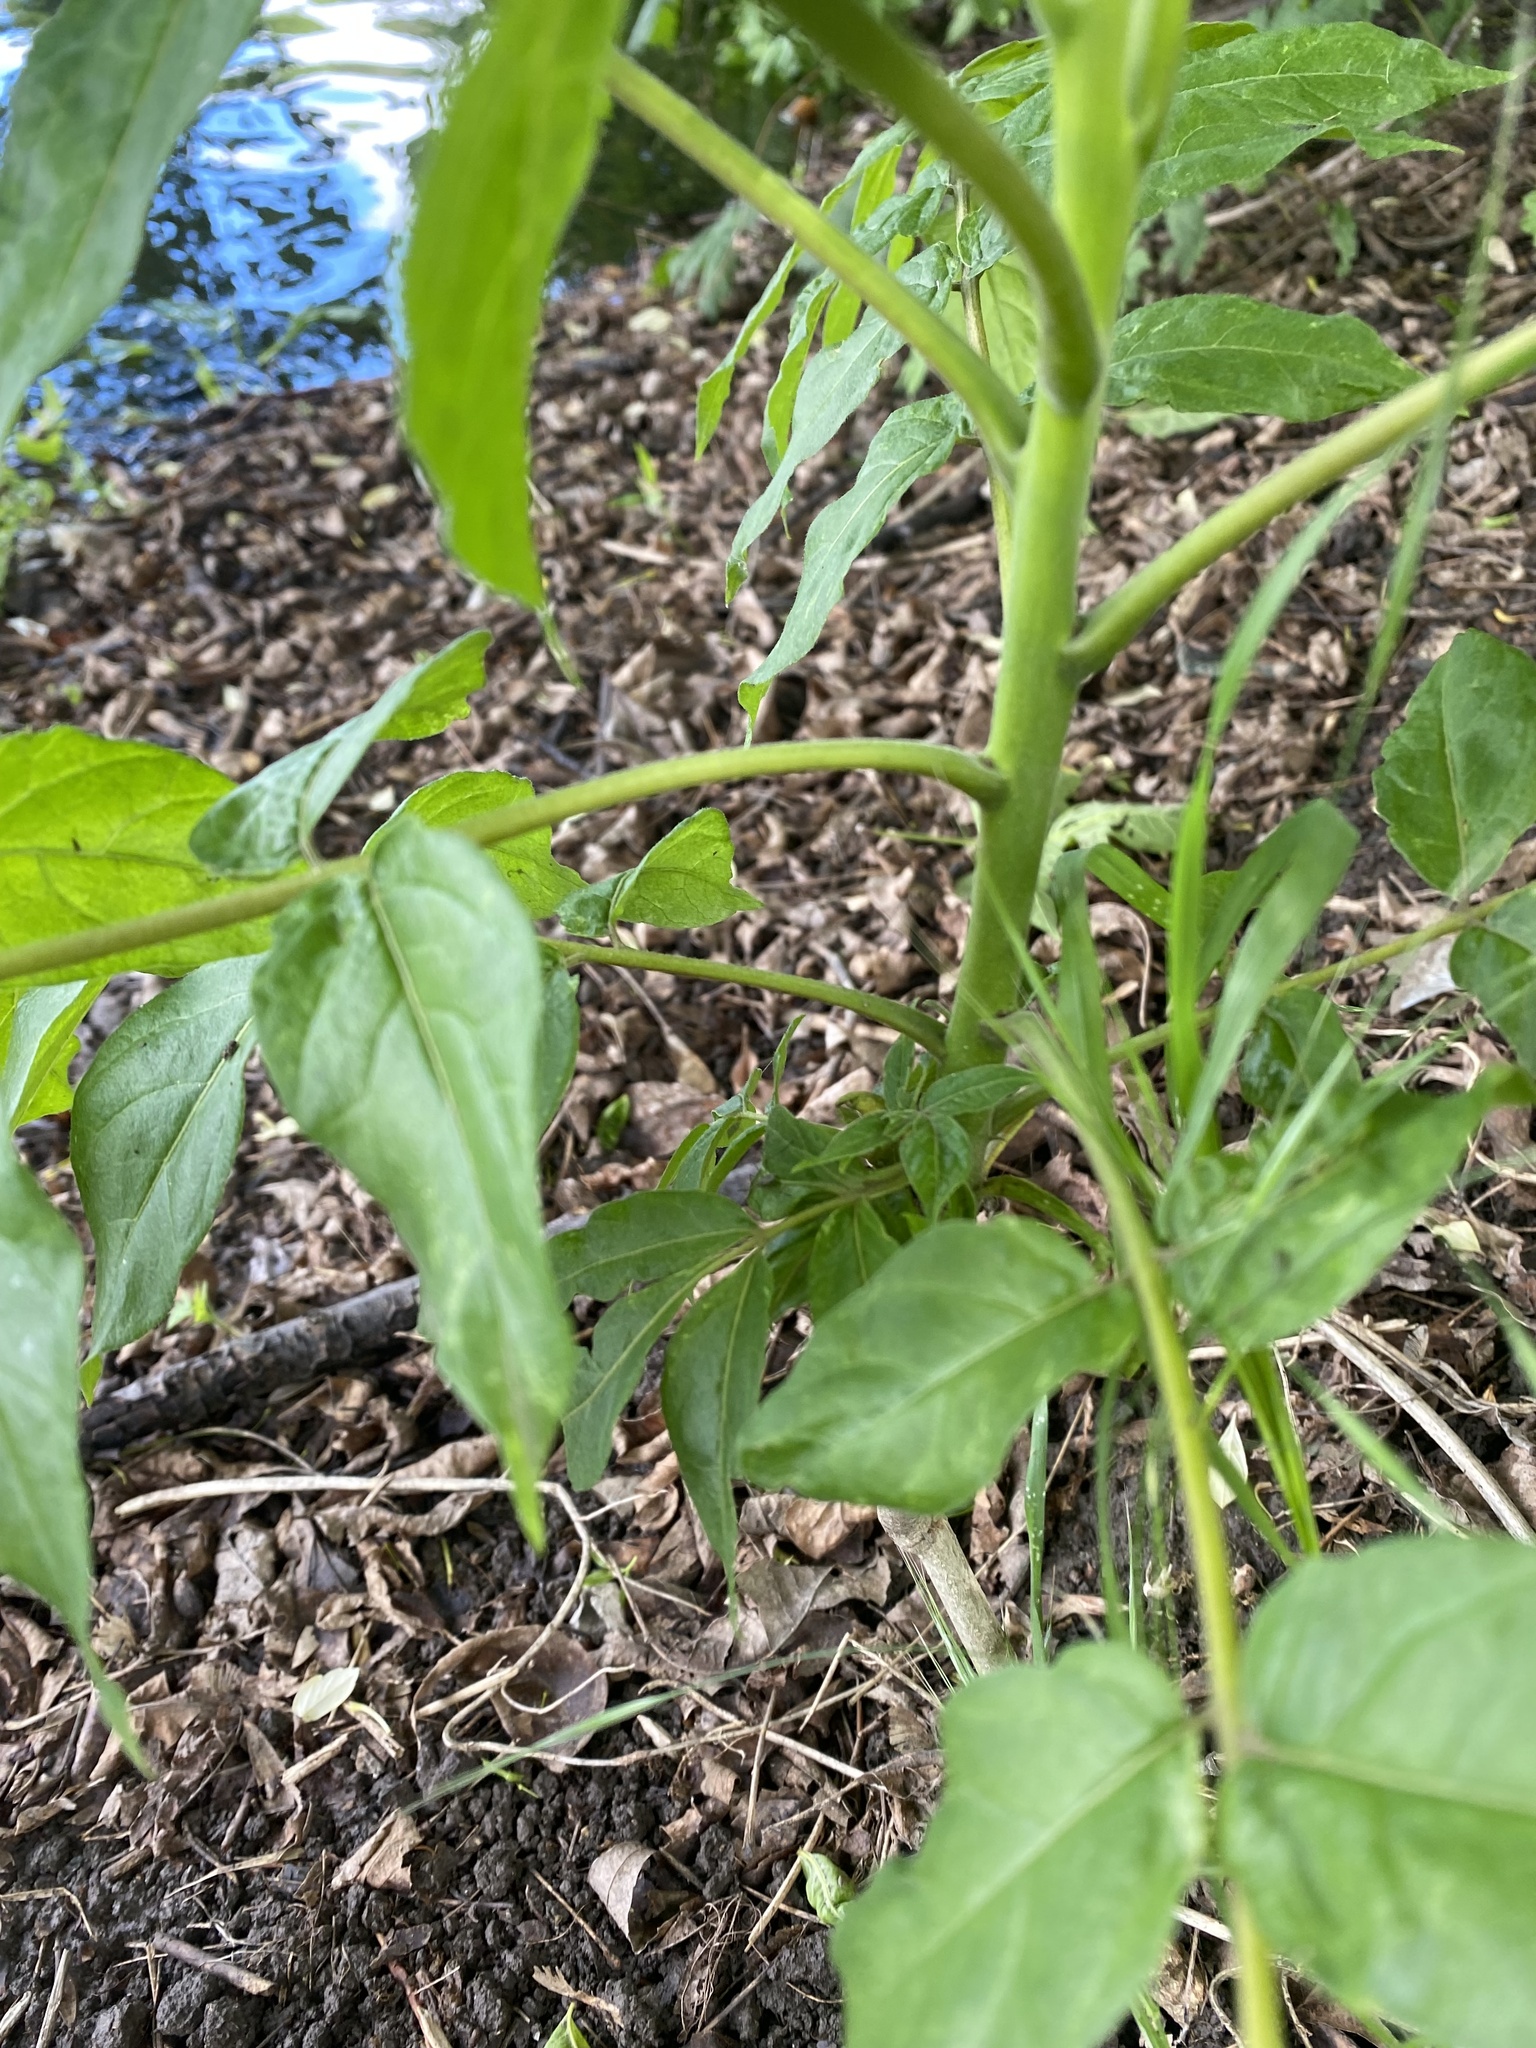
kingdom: Plantae
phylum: Tracheophyta
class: Magnoliopsida
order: Sapindales
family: Simaroubaceae
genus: Ailanthus
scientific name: Ailanthus altissima
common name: Tree-of-heaven
